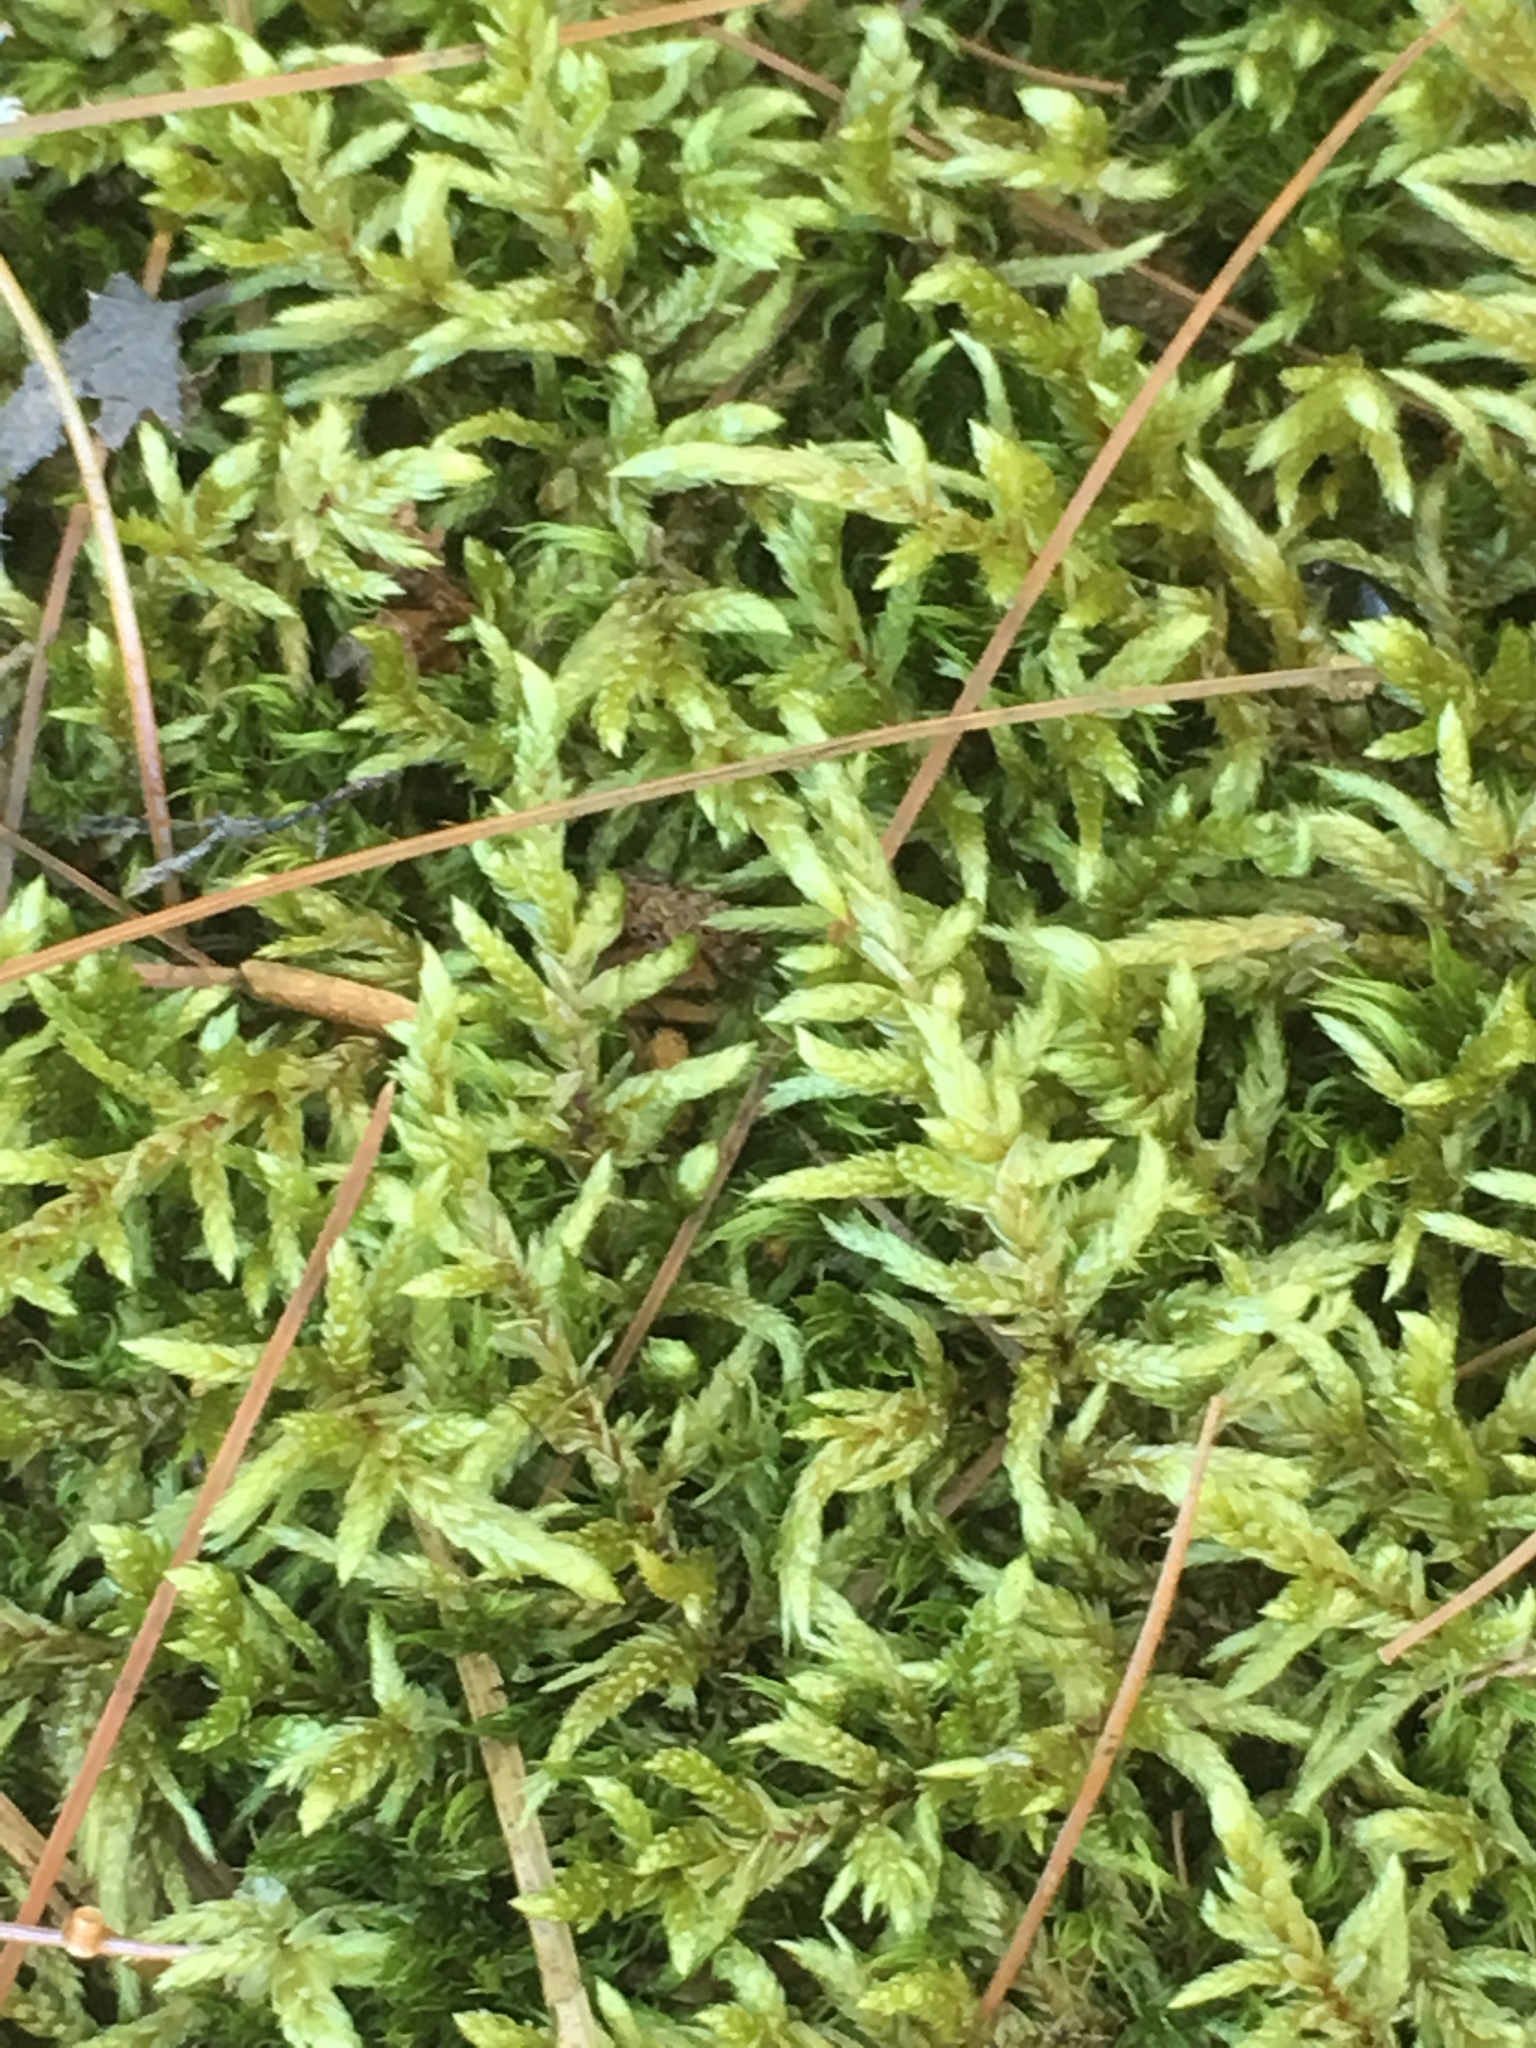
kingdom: Plantae
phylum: Bryophyta
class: Bryopsida
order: Hypnales
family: Hylocomiaceae
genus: Pleurozium
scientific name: Pleurozium schreberi
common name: Red-stemmed feather moss
